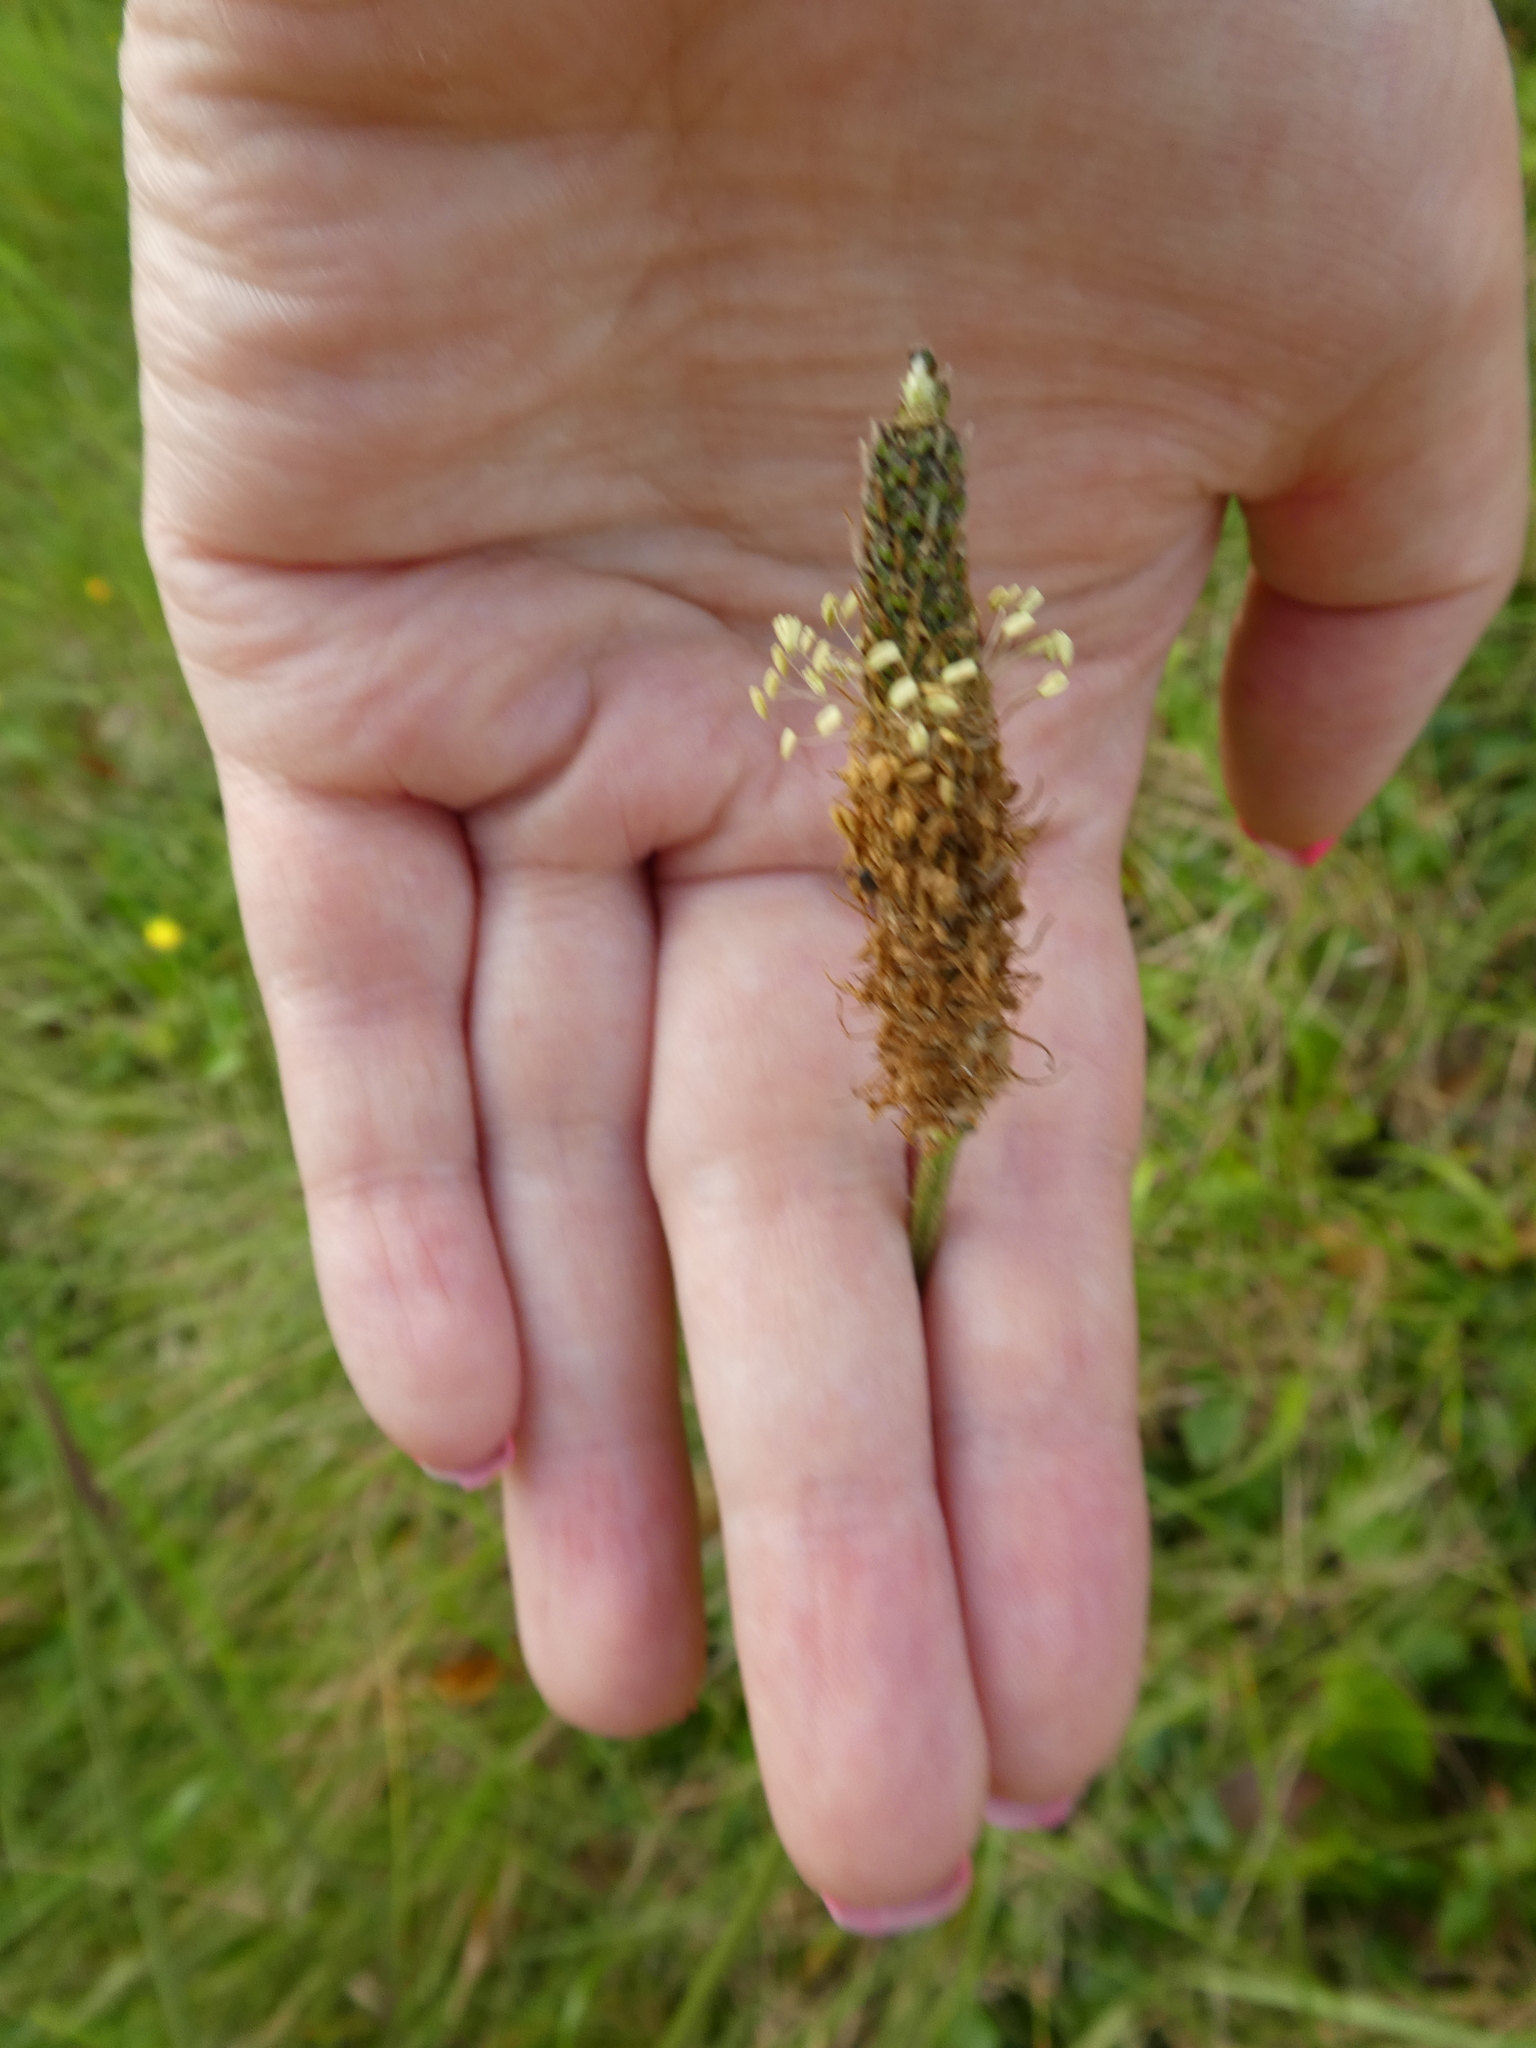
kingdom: Plantae
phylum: Tracheophyta
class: Magnoliopsida
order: Lamiales
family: Plantaginaceae
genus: Plantago
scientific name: Plantago lanceolata
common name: Ribwort plantain
